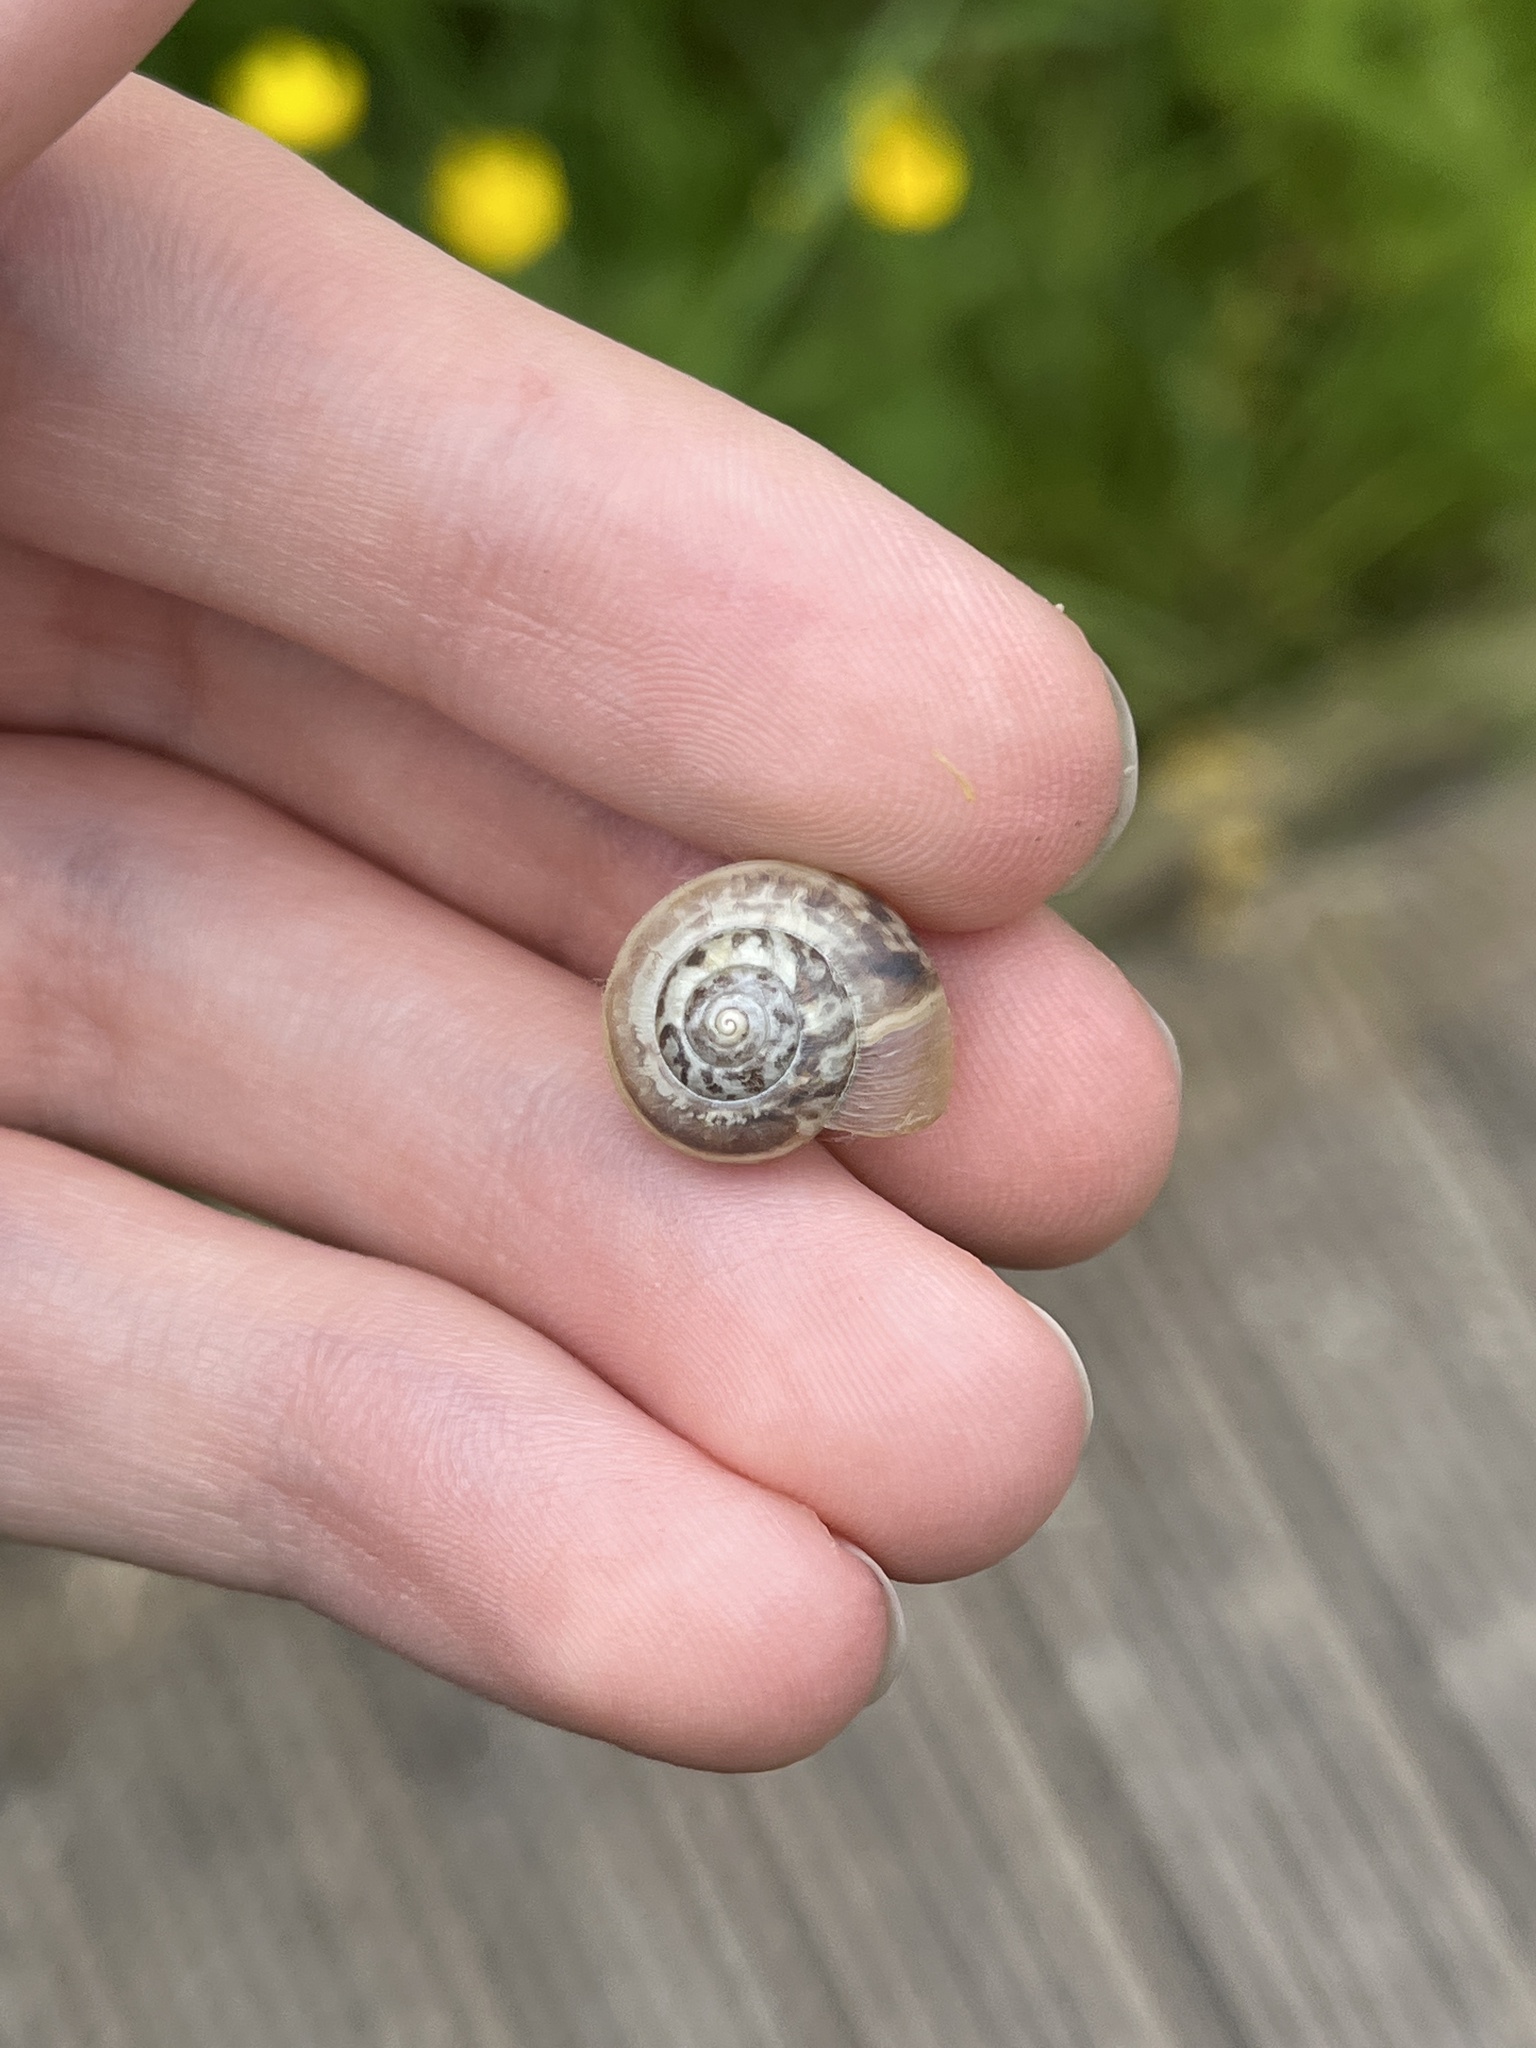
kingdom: Animalia
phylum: Mollusca
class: Gastropoda
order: Stylommatophora
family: Hygromiidae
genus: Monacha
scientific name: Monacha cantiana
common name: Kentish snail
